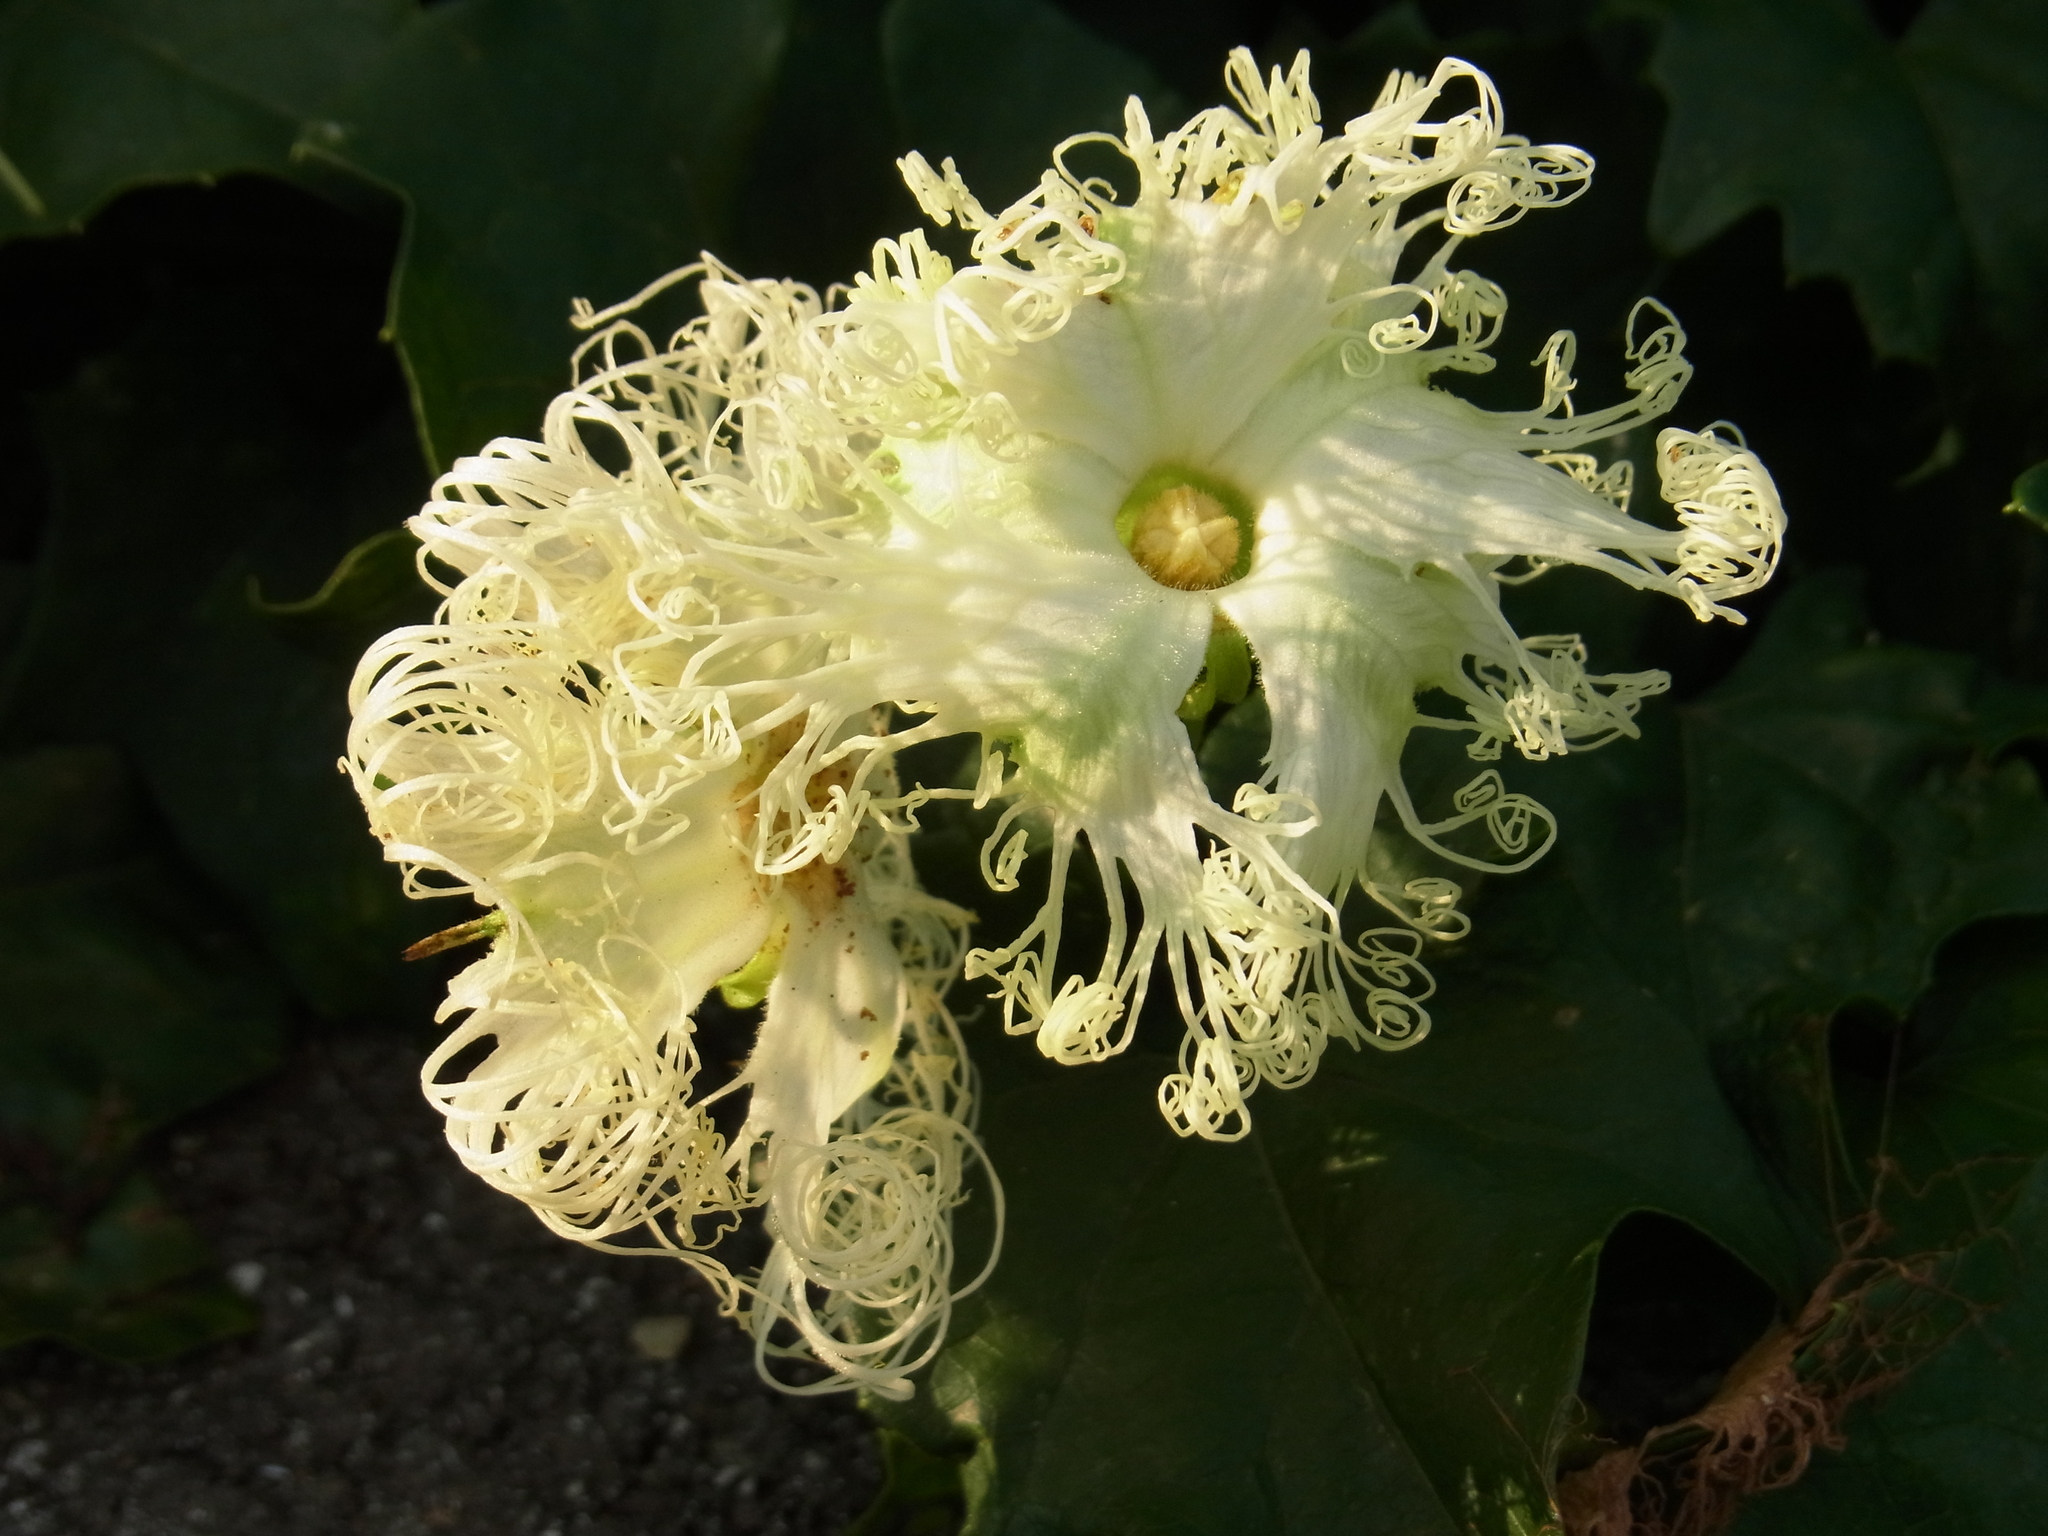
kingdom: Plantae
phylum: Tracheophyta
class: Magnoliopsida
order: Cucurbitales
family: Cucurbitaceae
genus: Trichosanthes
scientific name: Trichosanthes kirilowii
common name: Chinese-cucumber
